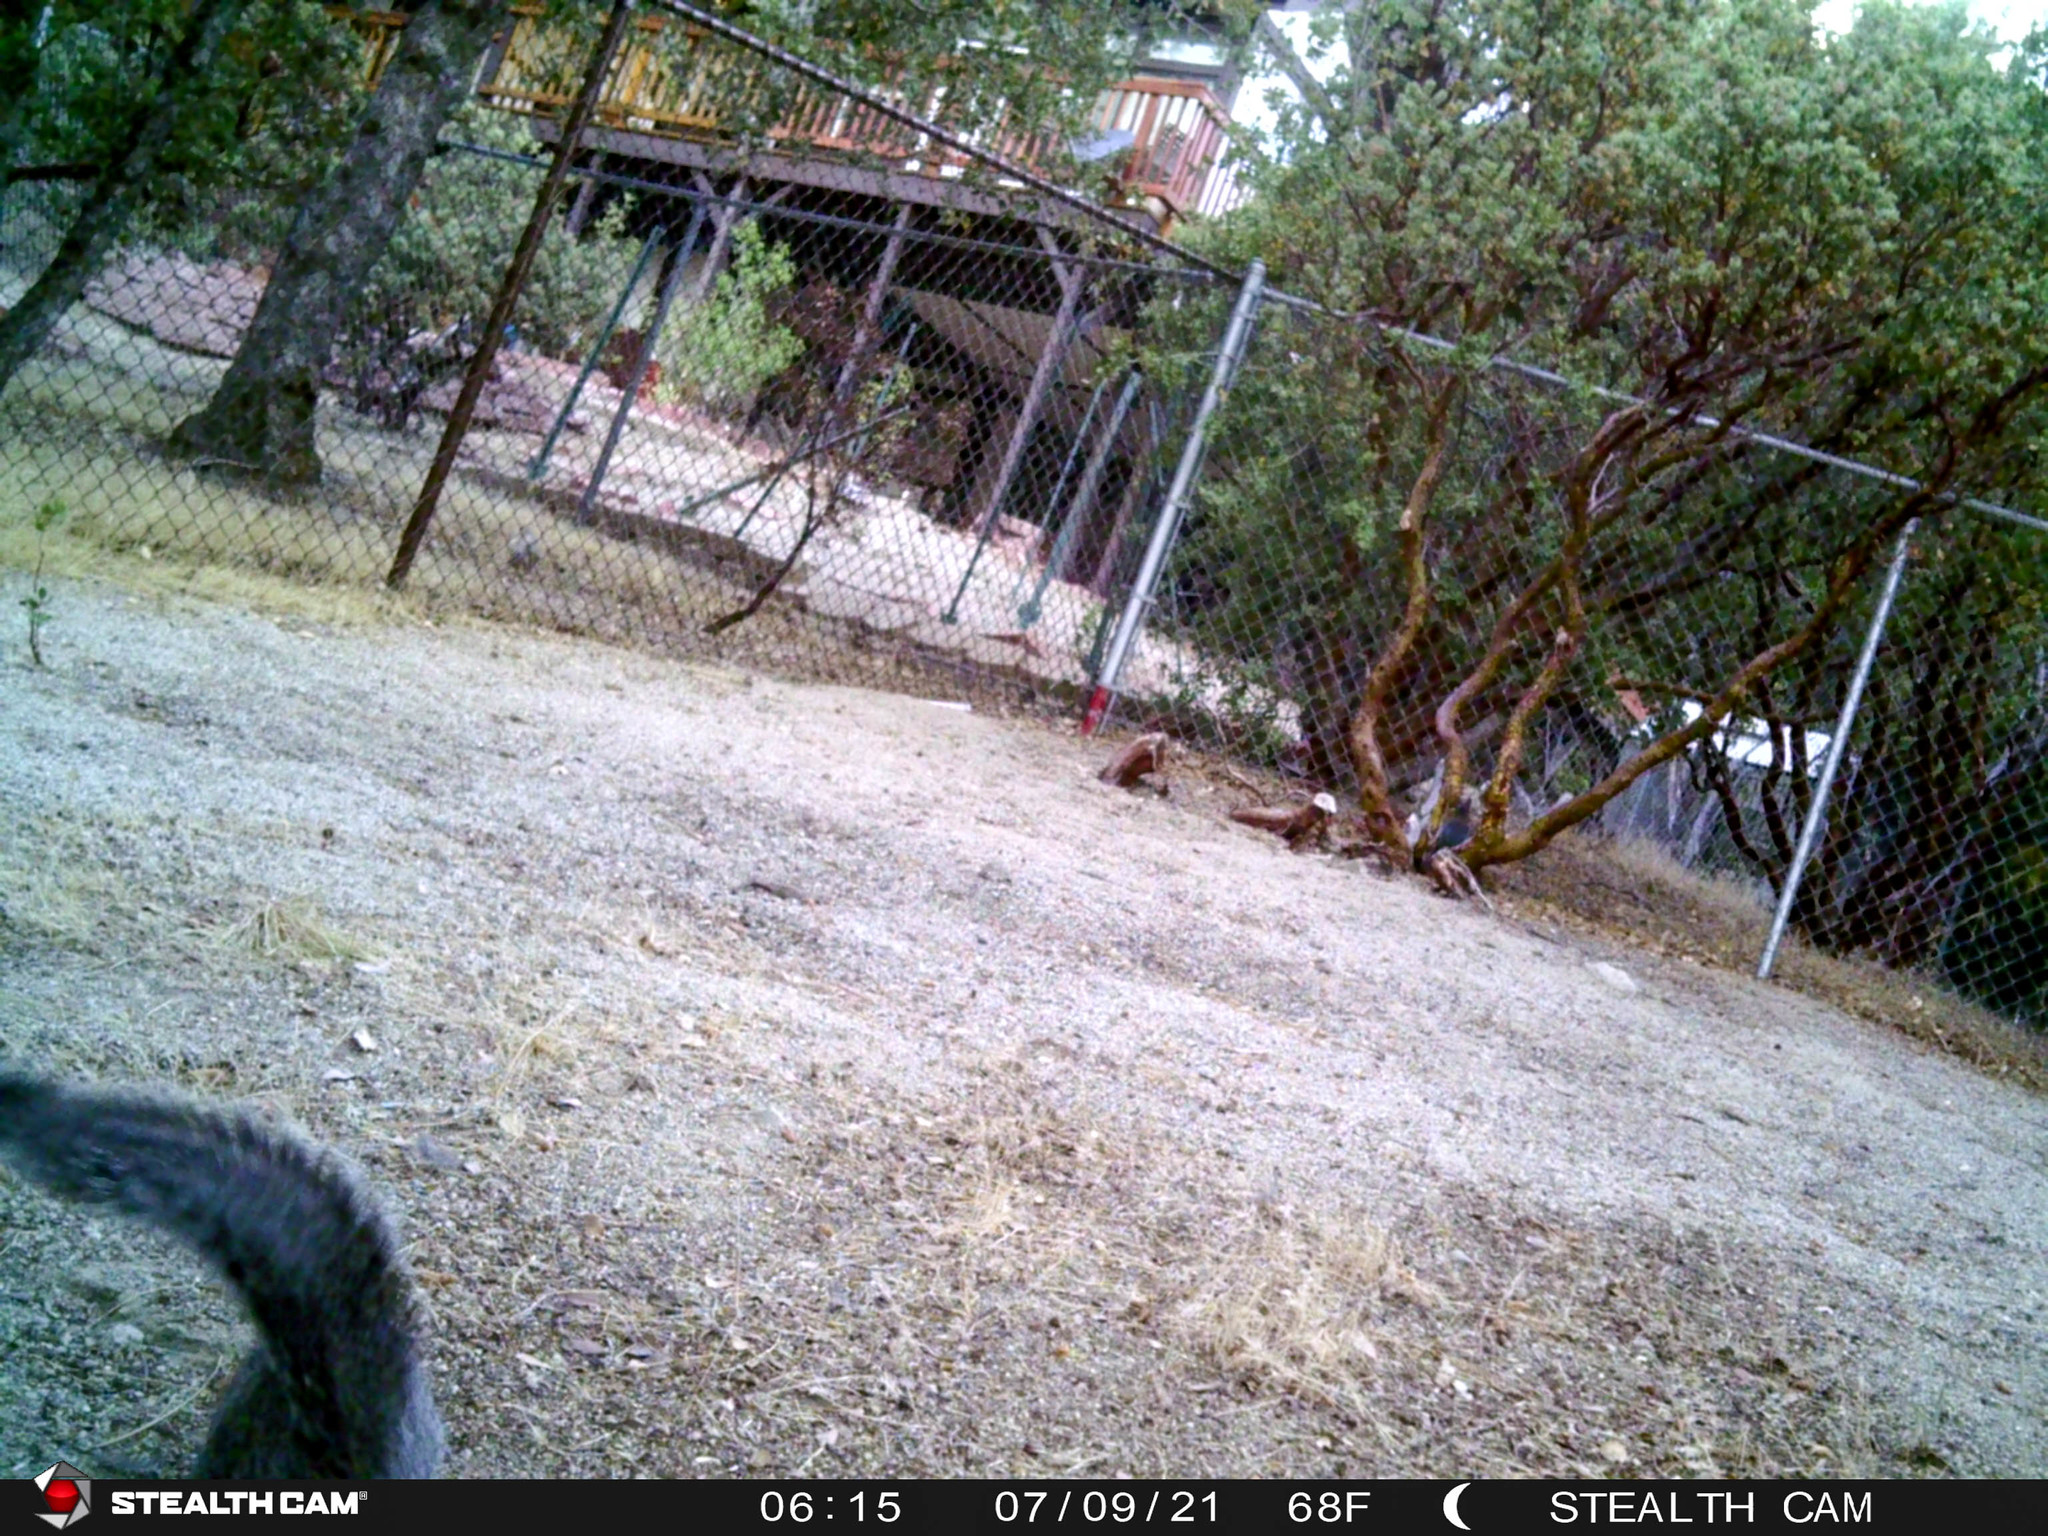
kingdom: Animalia
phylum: Chordata
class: Mammalia
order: Rodentia
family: Sciuridae
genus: Sciurus
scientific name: Sciurus griseus
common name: Western gray squirrel
